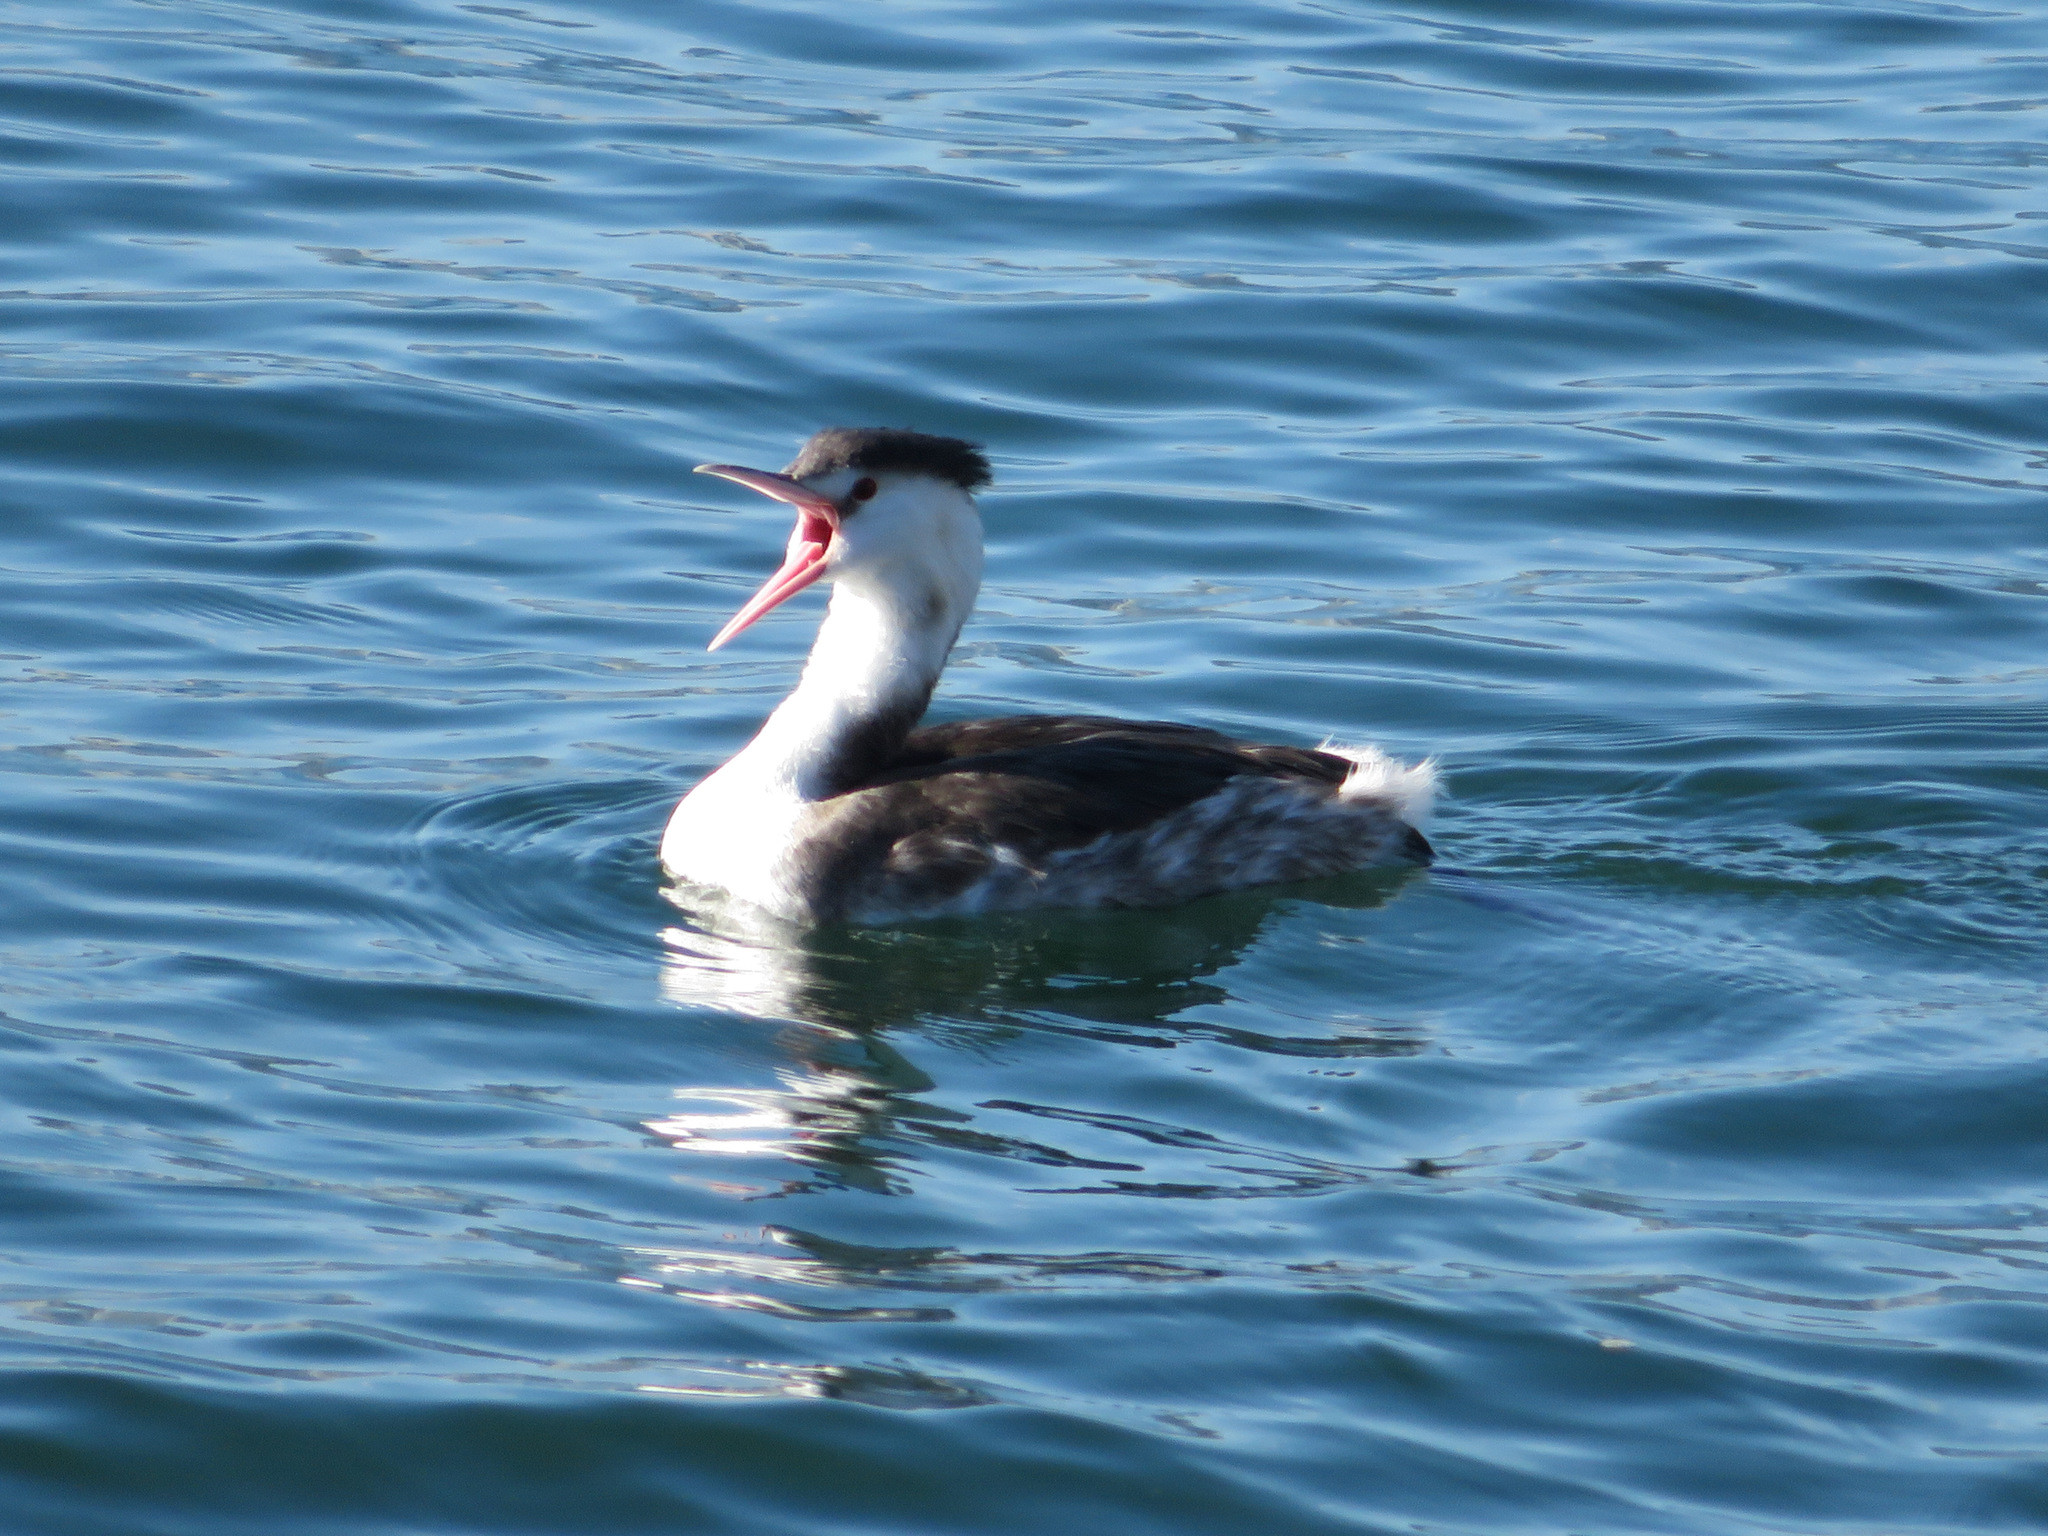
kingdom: Animalia
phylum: Chordata
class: Aves
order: Podicipediformes
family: Podicipedidae
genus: Podiceps
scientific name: Podiceps cristatus
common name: Great crested grebe
